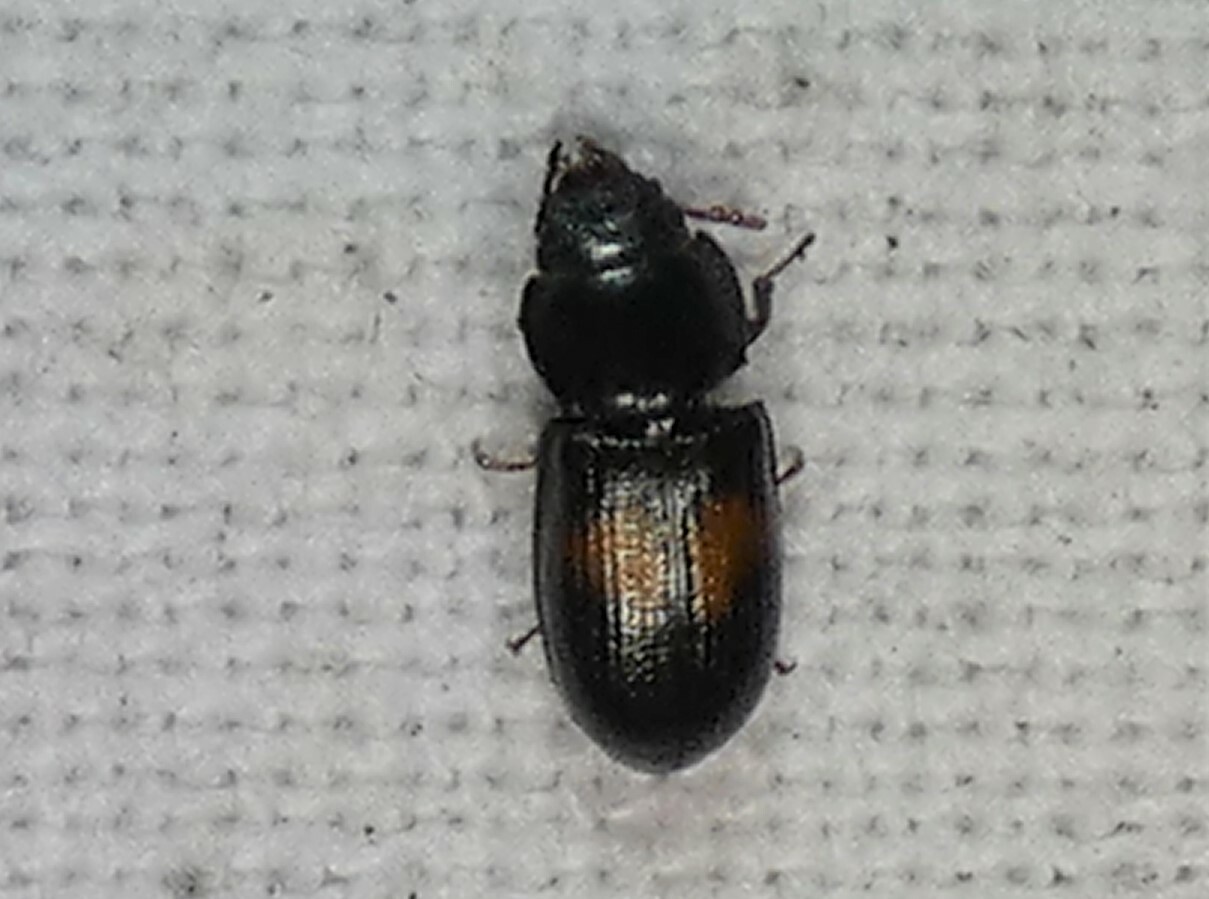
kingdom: Animalia
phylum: Arthropoda
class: Insecta
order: Coleoptera
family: Trogossitidae
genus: Tenebroides
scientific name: Tenebroides
